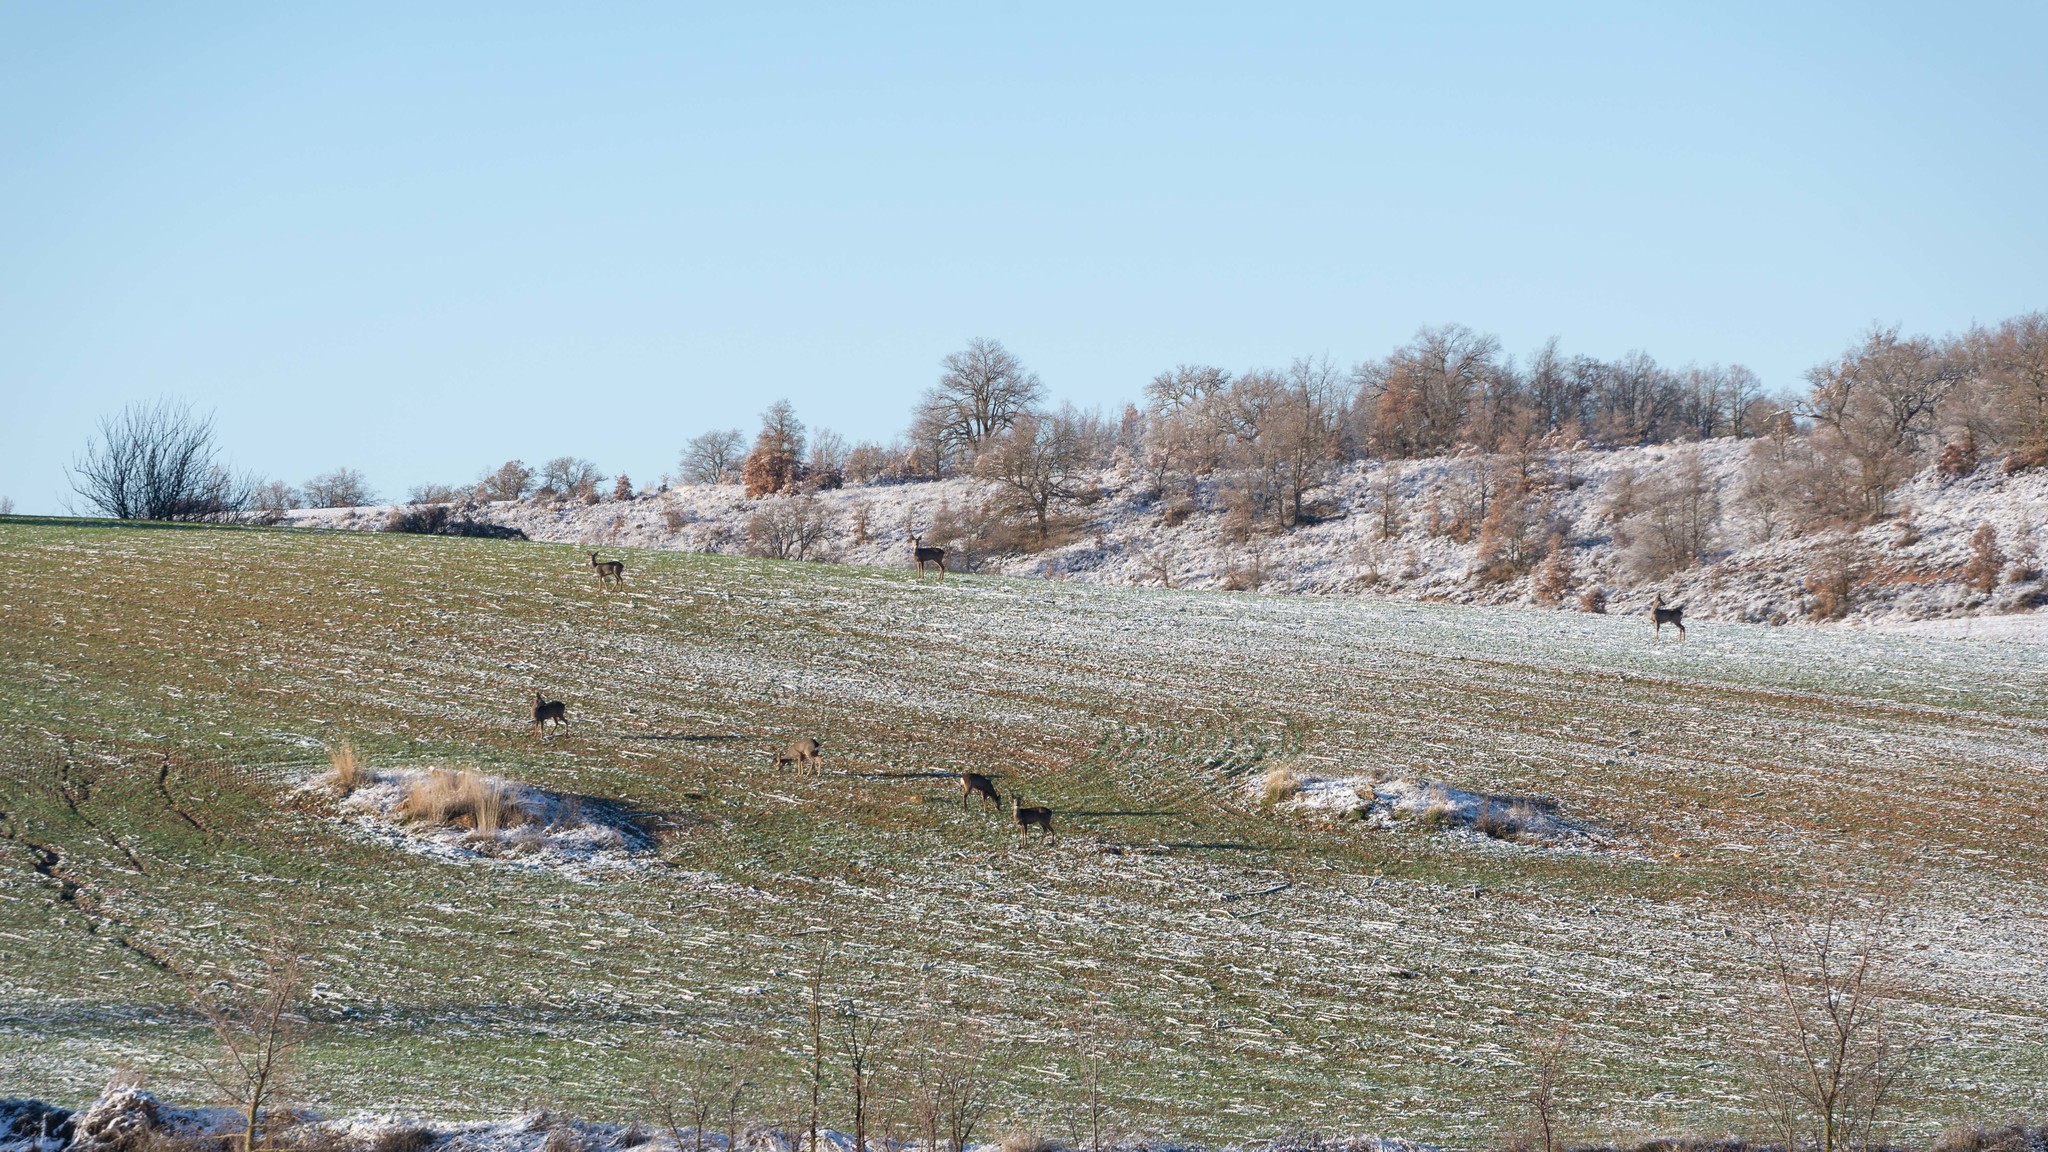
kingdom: Animalia
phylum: Chordata
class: Mammalia
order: Artiodactyla
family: Cervidae
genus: Capreolus
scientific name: Capreolus capreolus
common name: Western roe deer
